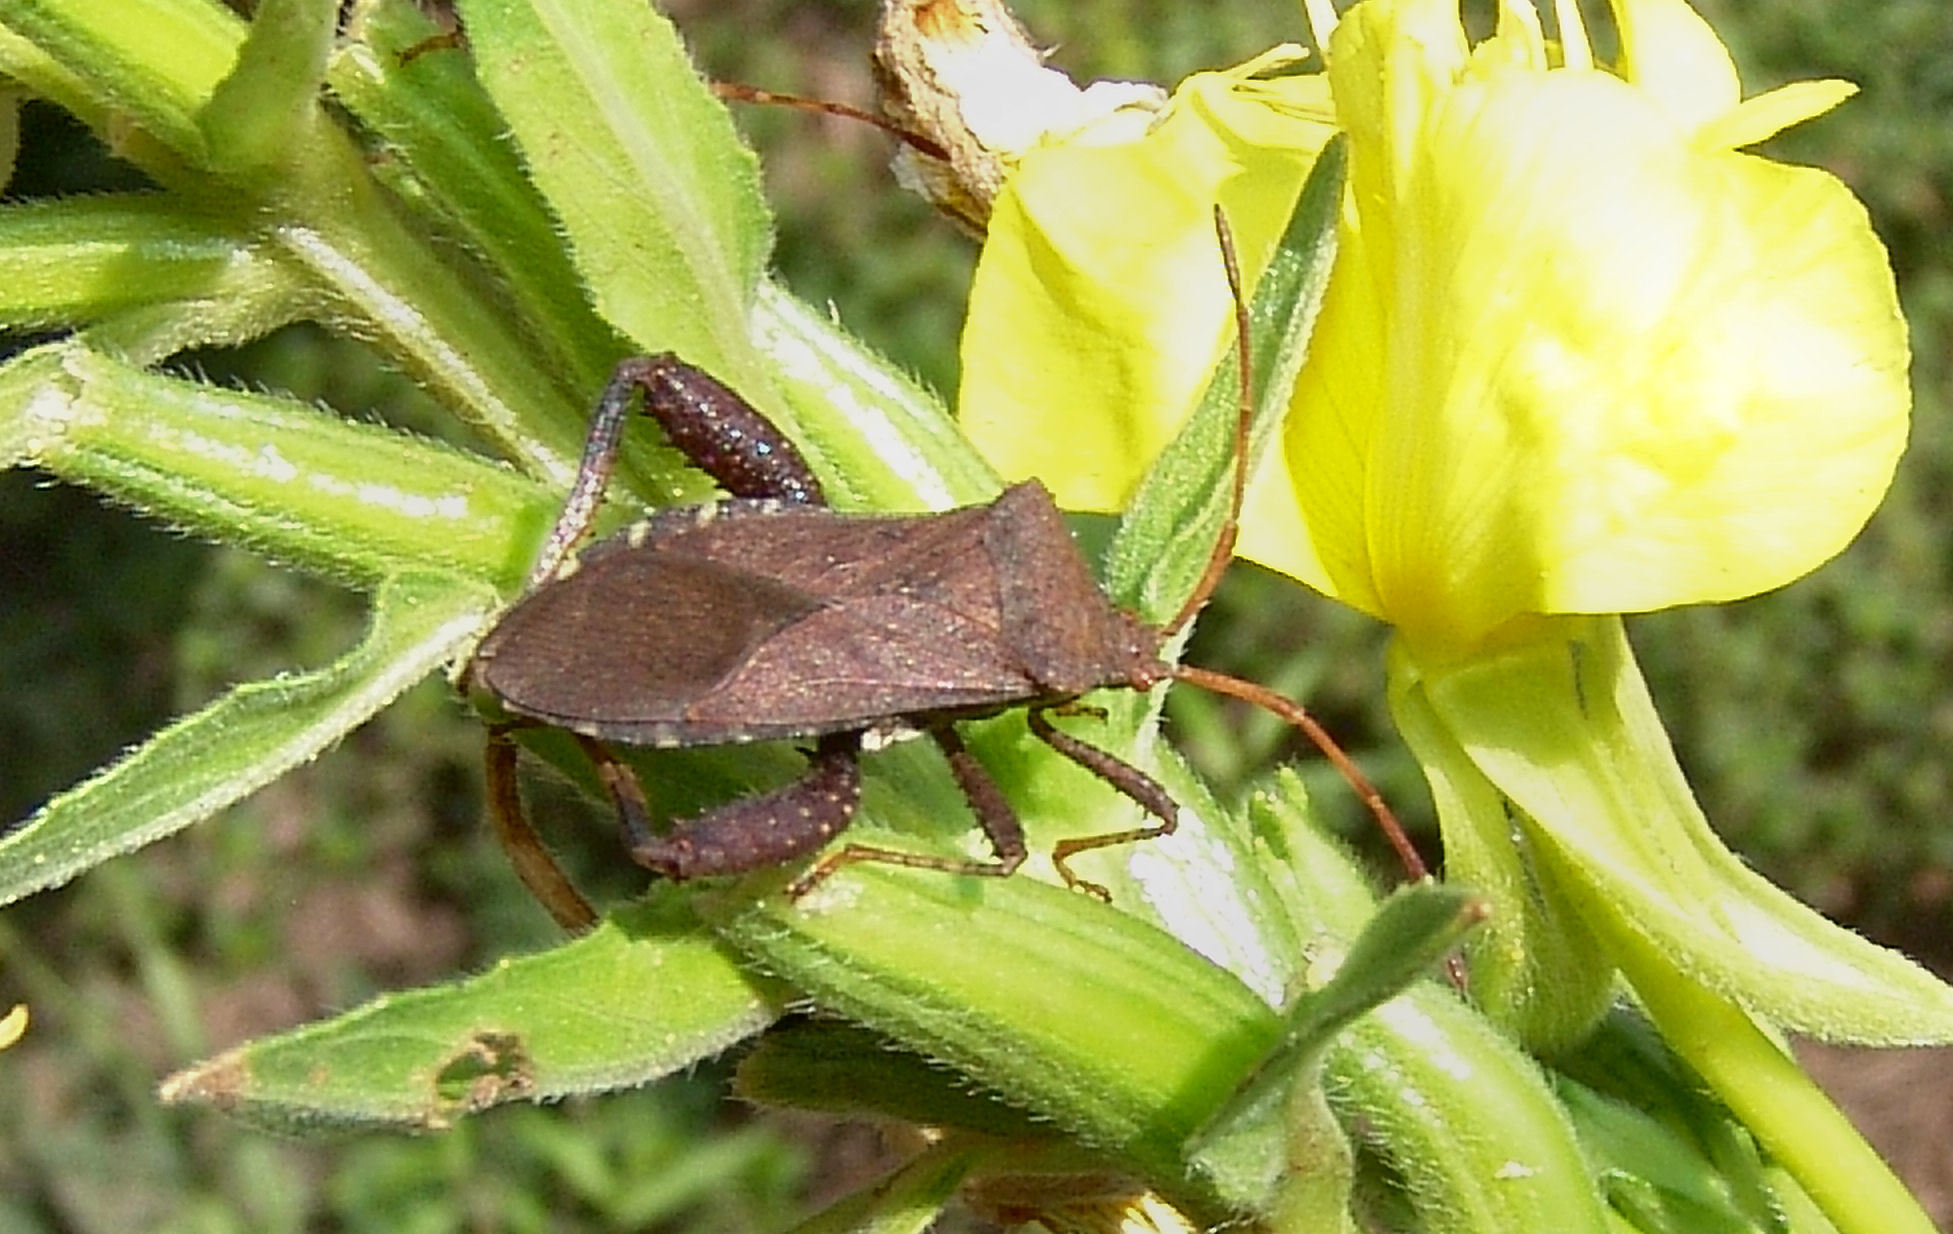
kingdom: Animalia
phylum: Arthropoda
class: Insecta
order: Hemiptera
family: Coreidae
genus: Euthochtha
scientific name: Euthochtha galeator
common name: Helmeted squash bug
